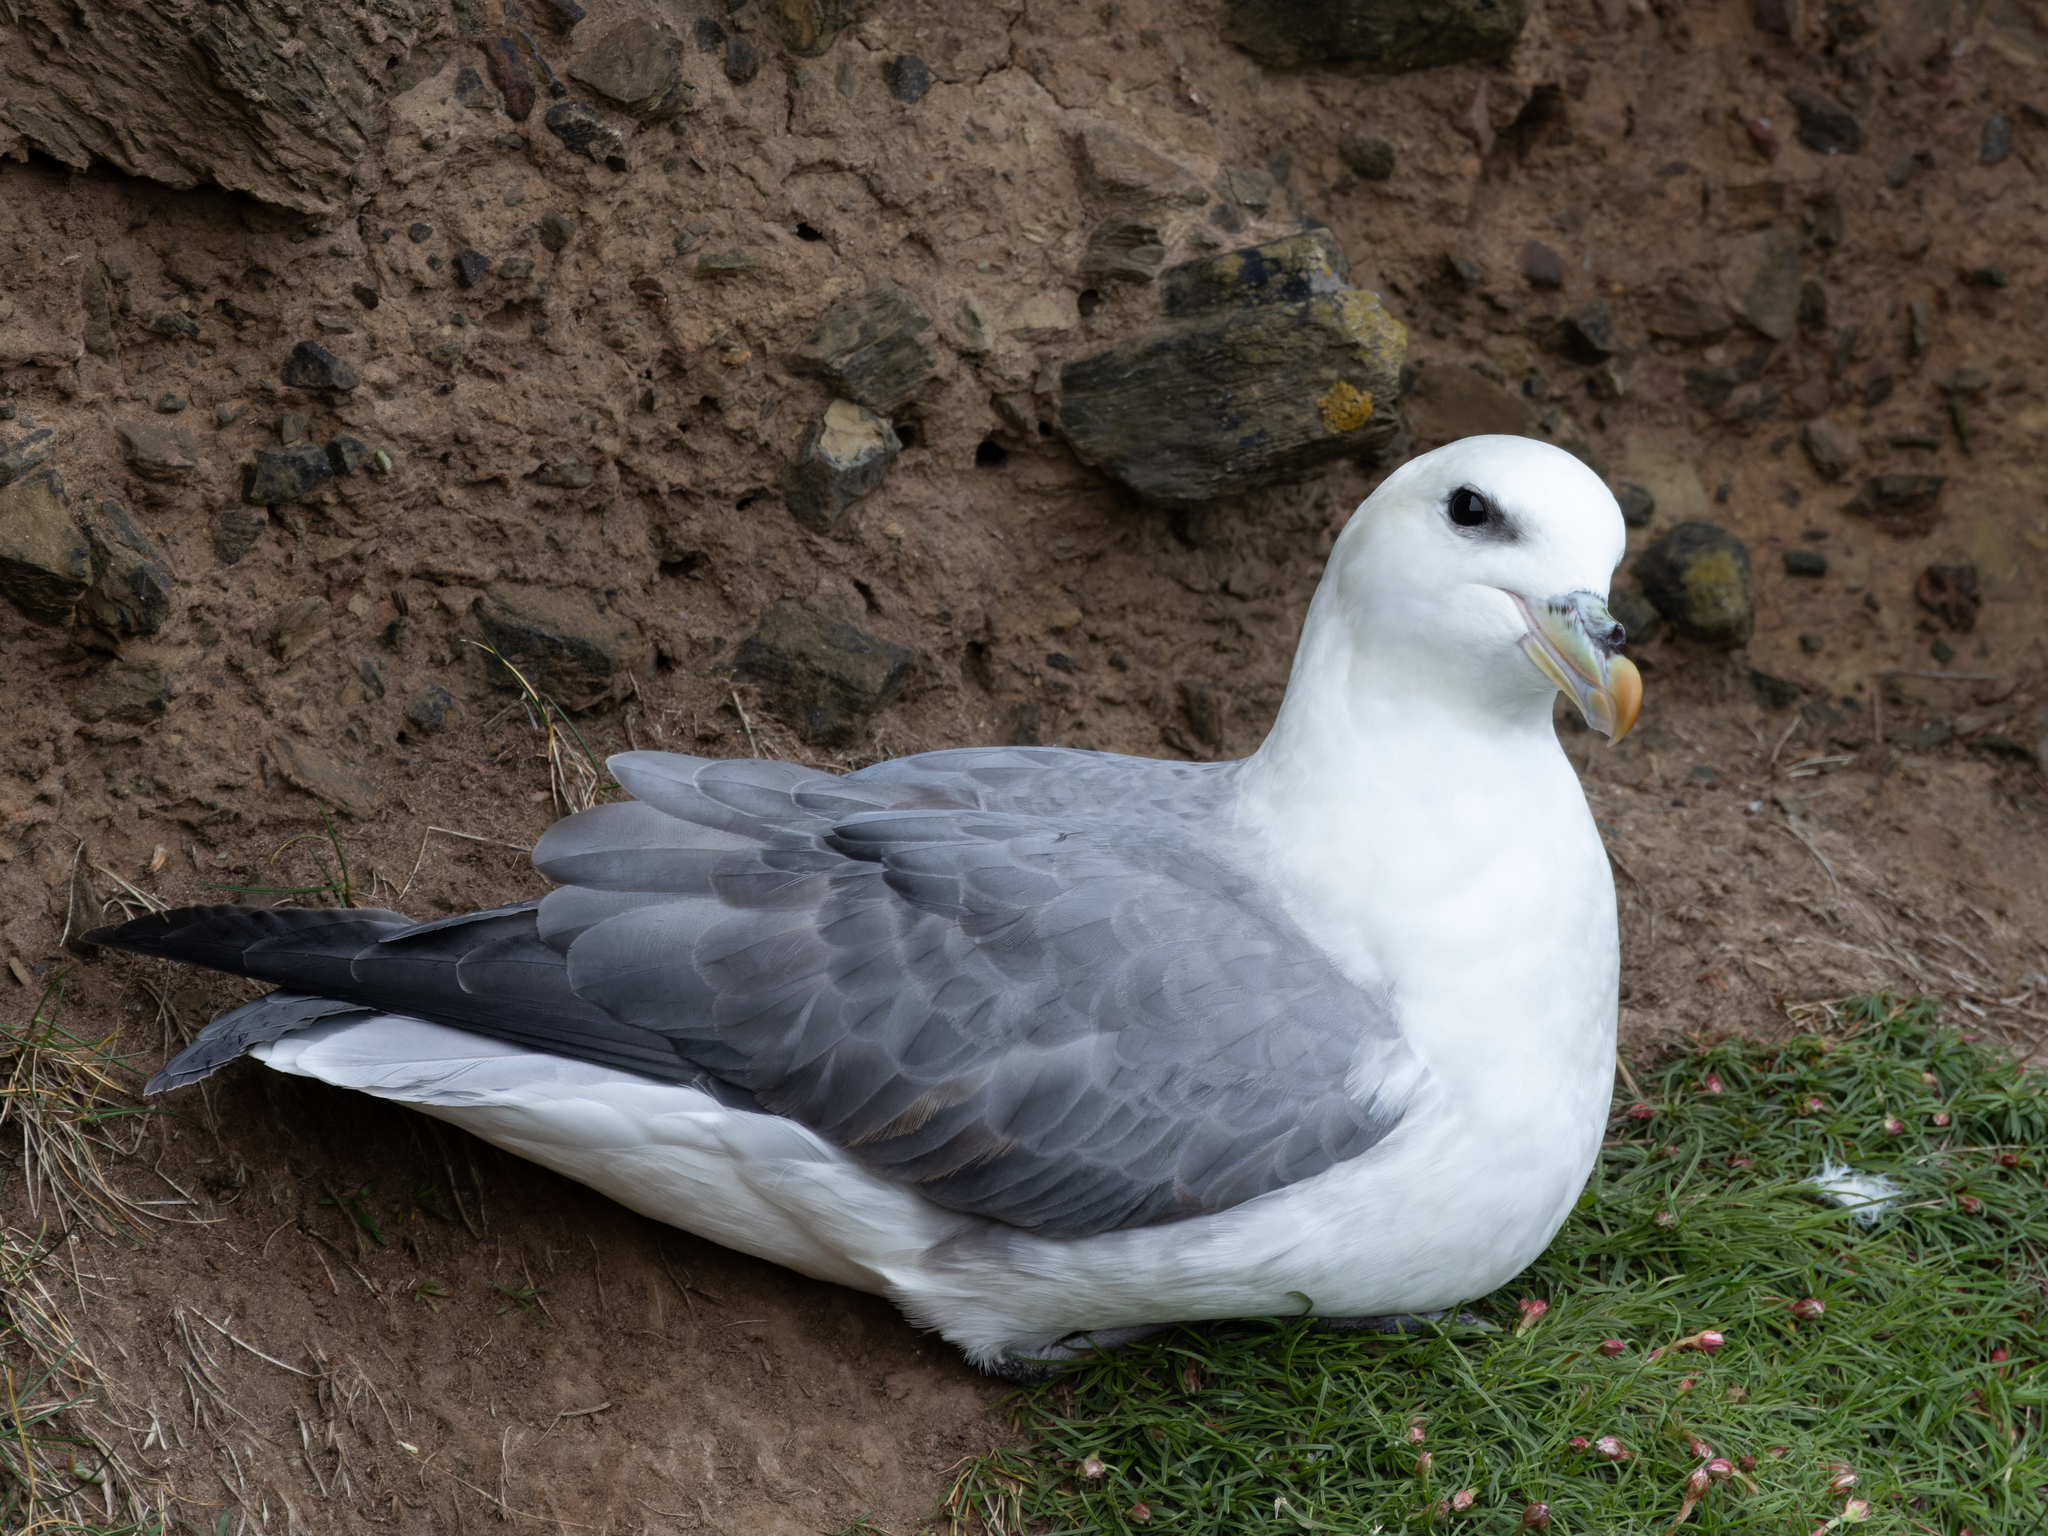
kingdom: Animalia
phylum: Chordata
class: Aves
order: Procellariiformes
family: Procellariidae
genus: Fulmarus
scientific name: Fulmarus glacialis
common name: Northern fulmar
